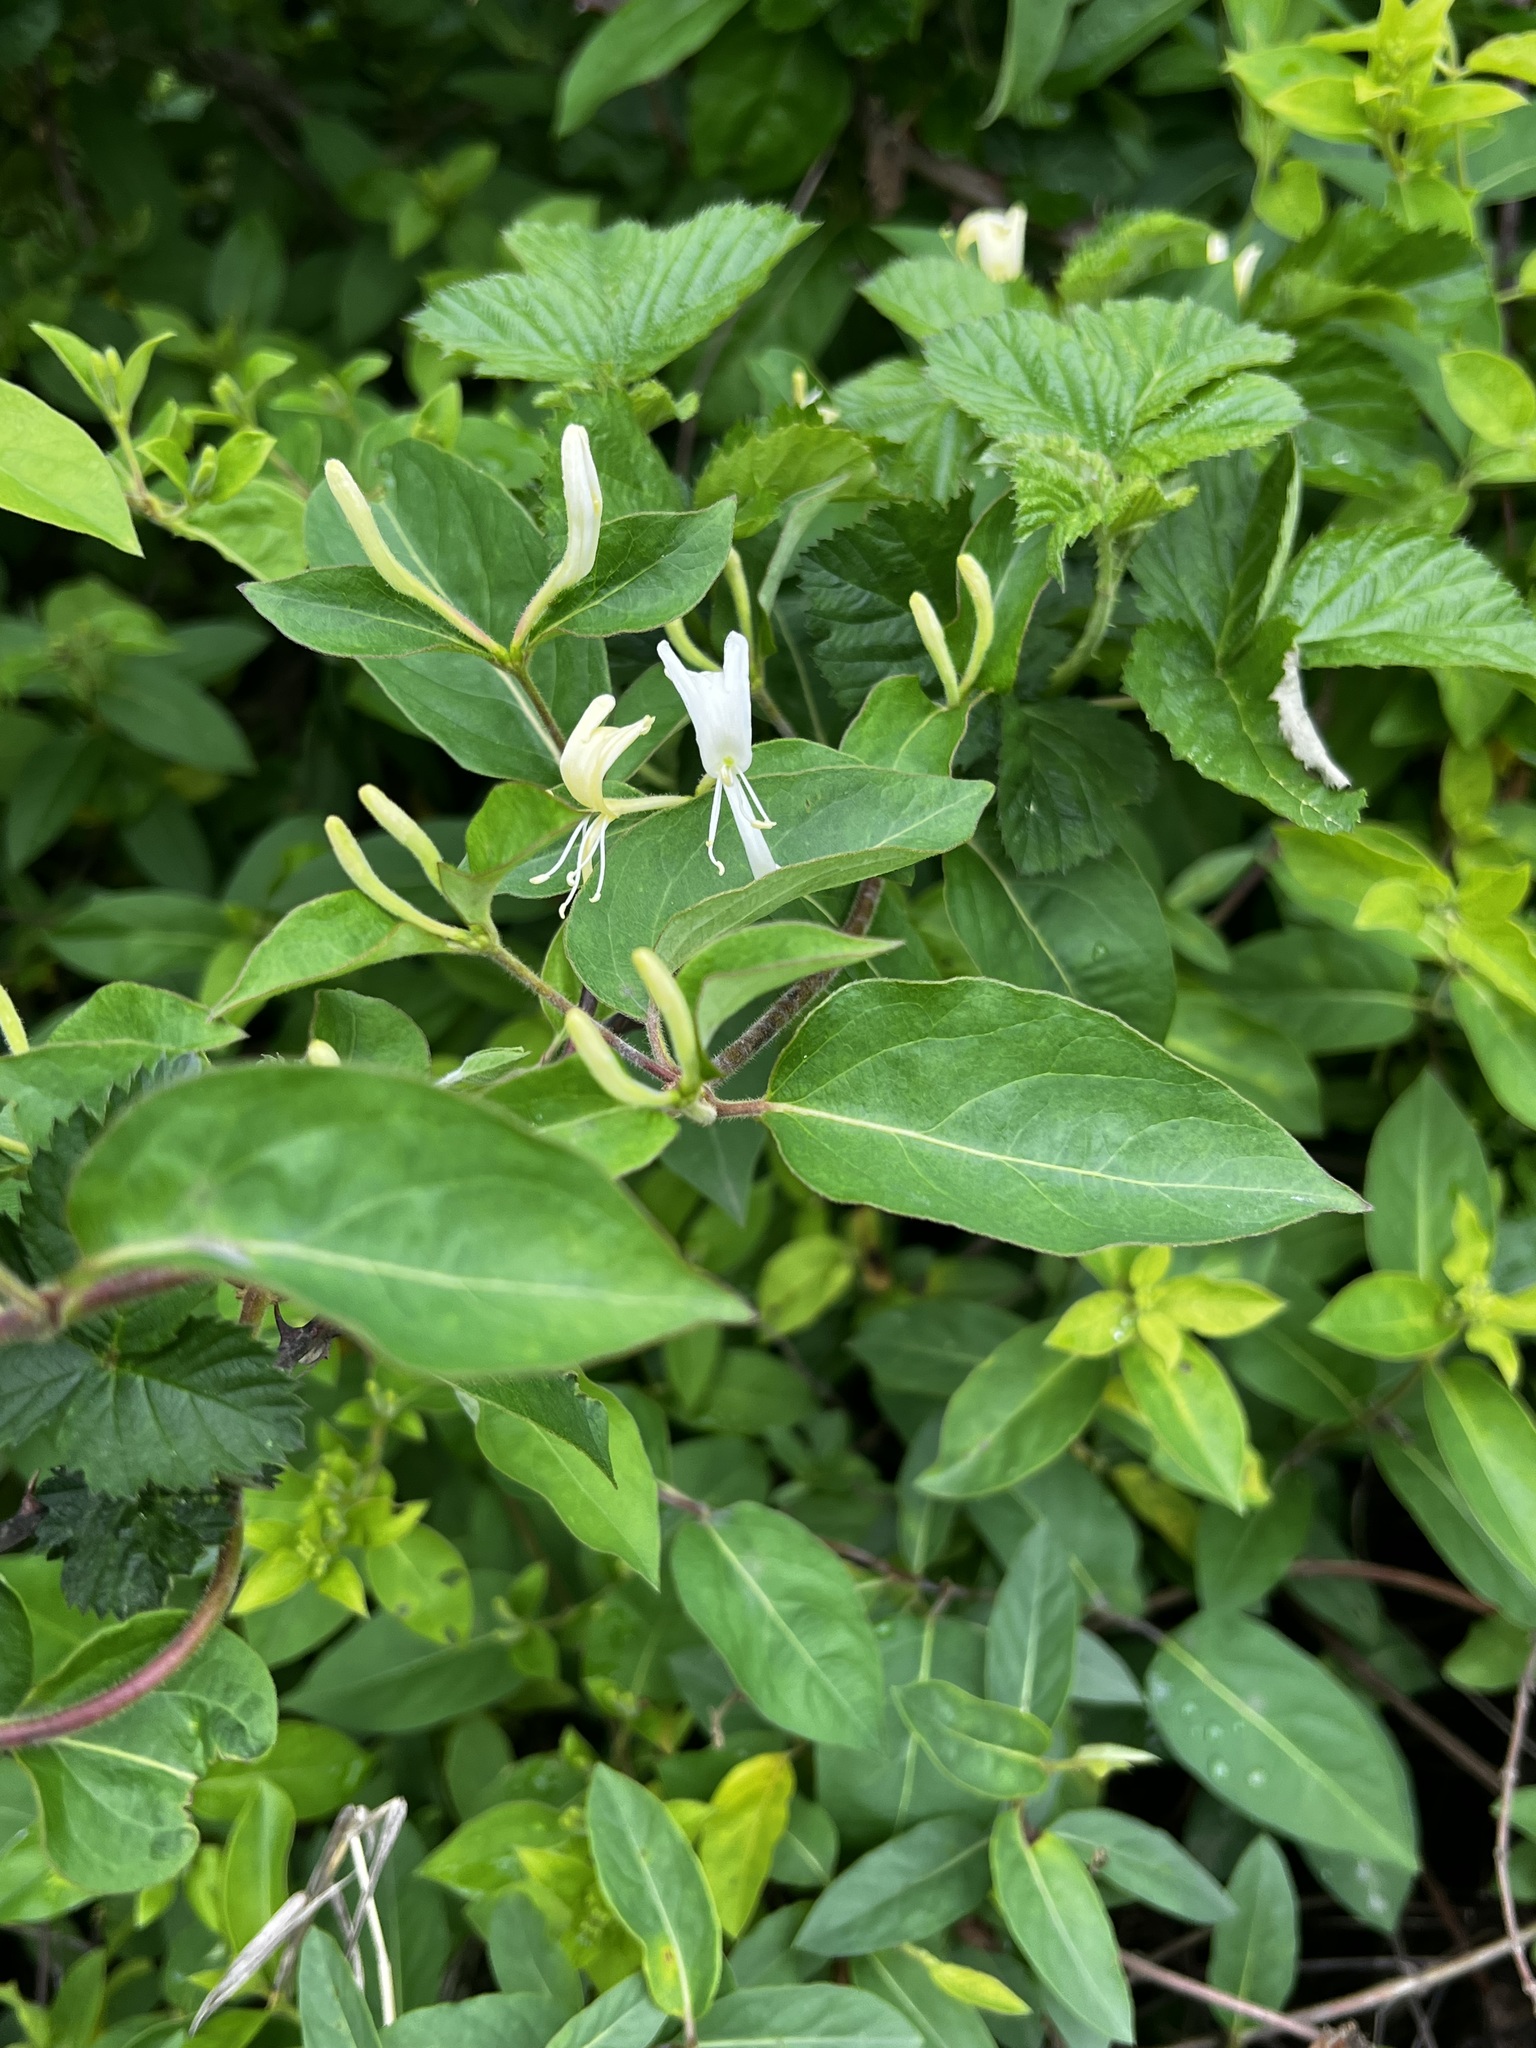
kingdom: Plantae
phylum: Tracheophyta
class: Magnoliopsida
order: Dipsacales
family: Caprifoliaceae
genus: Lonicera
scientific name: Lonicera japonica
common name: Japanese honeysuckle
